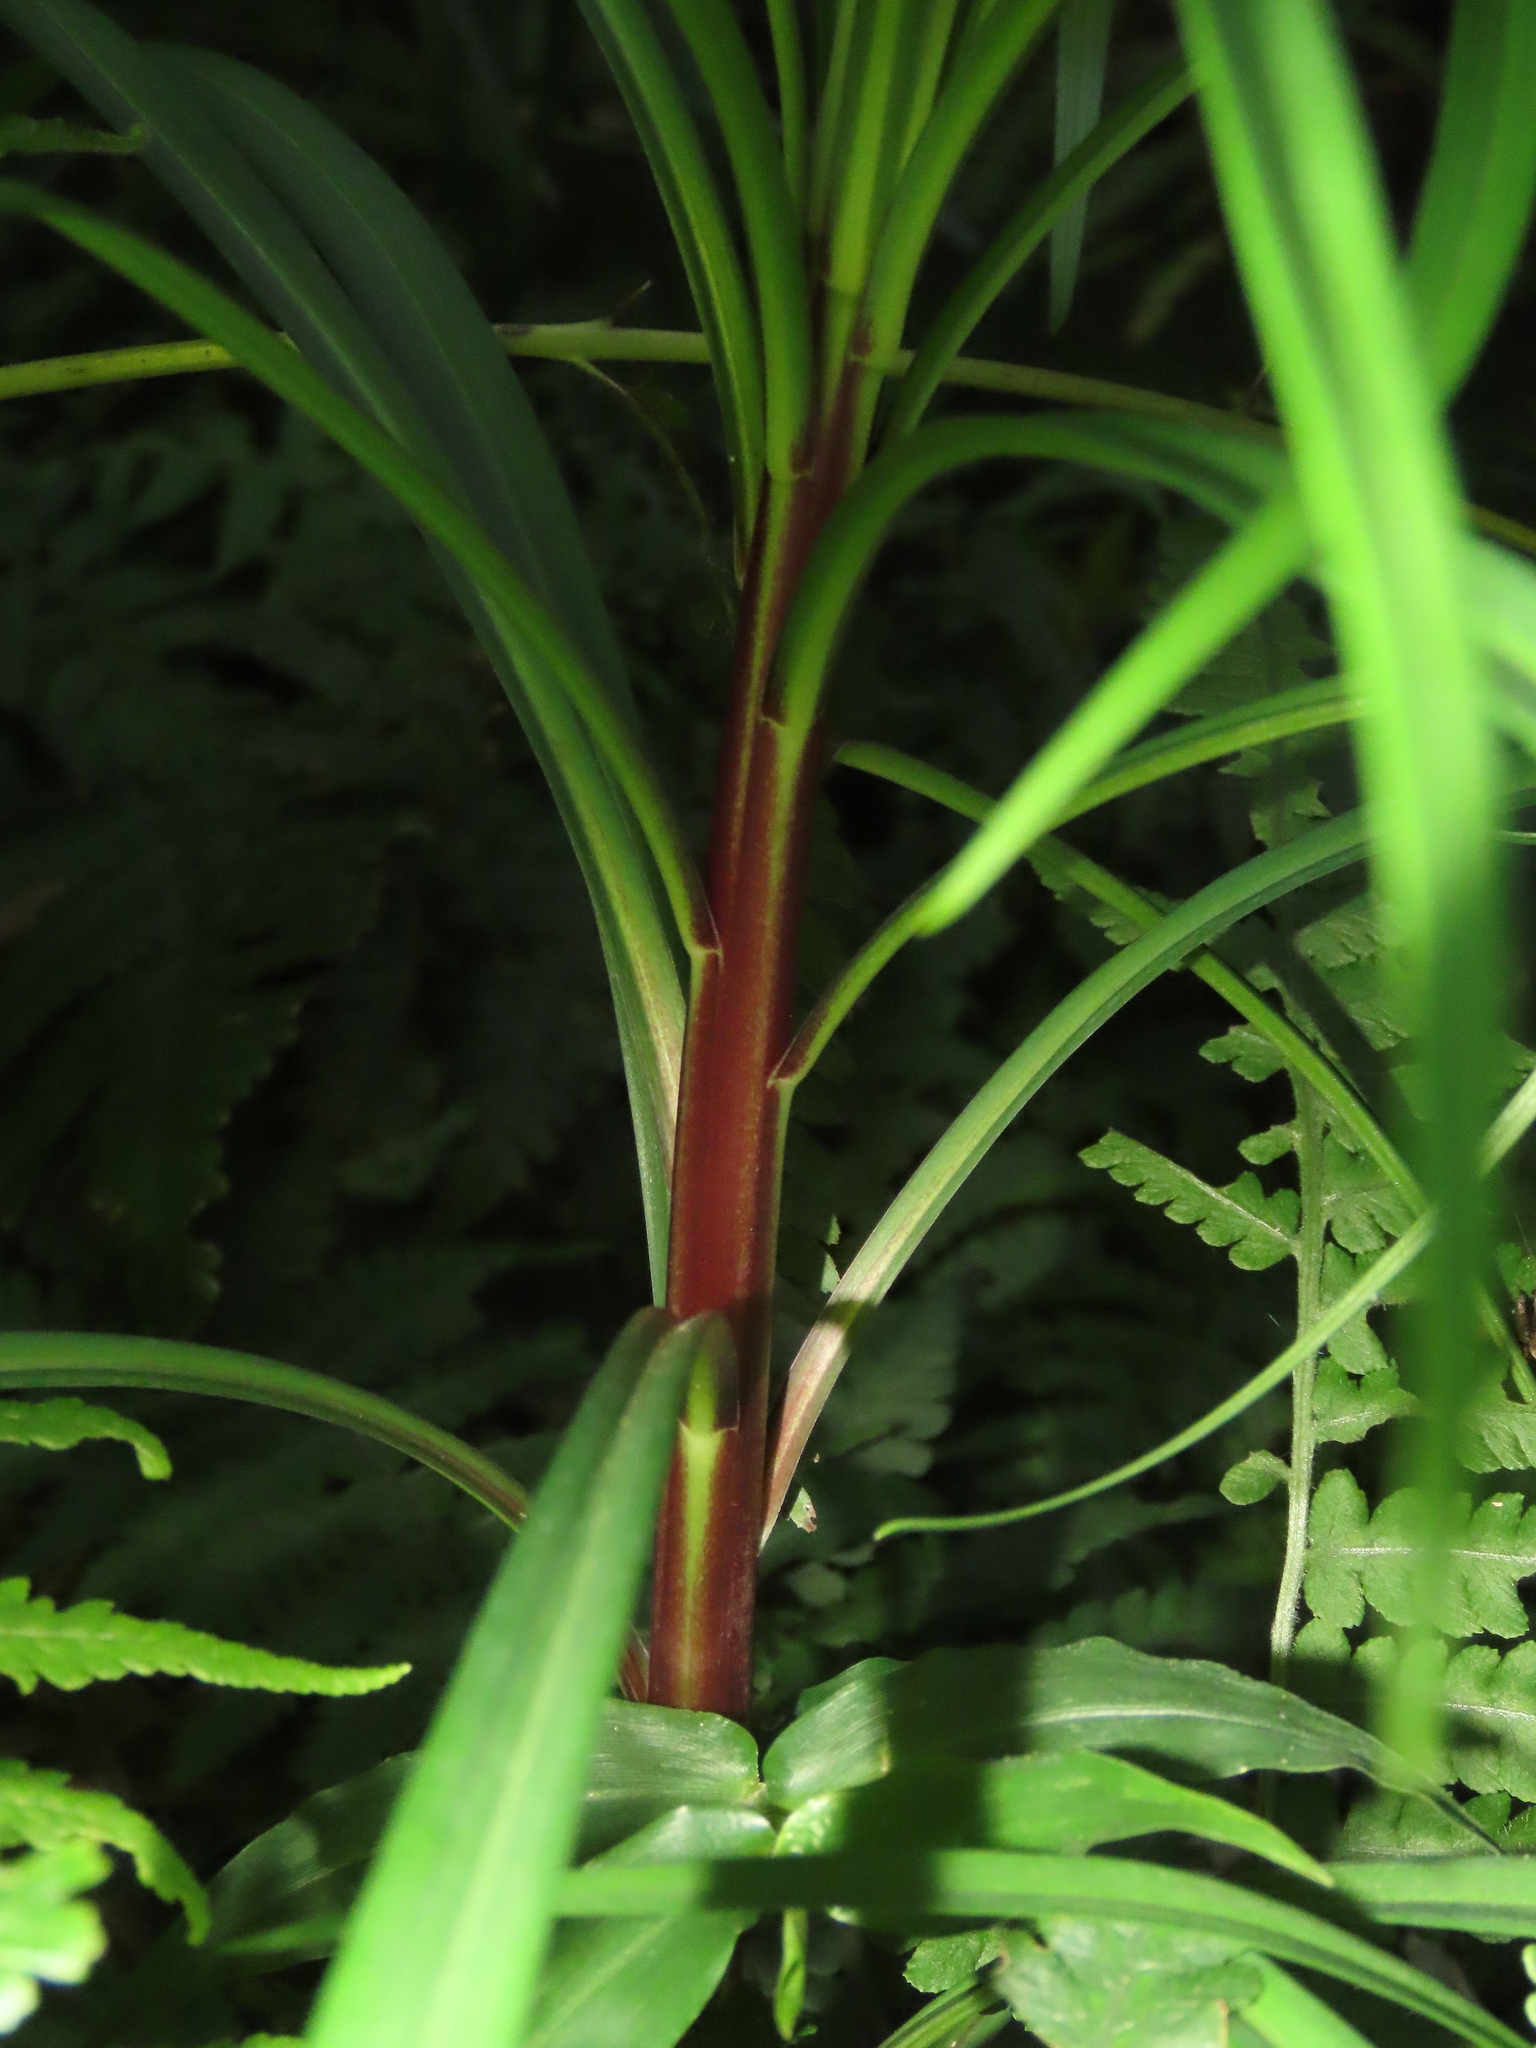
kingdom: Plantae
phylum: Tracheophyta
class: Liliopsida
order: Liliales
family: Liliaceae
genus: Lilium
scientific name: Lilium formosanum
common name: Formosa lily
